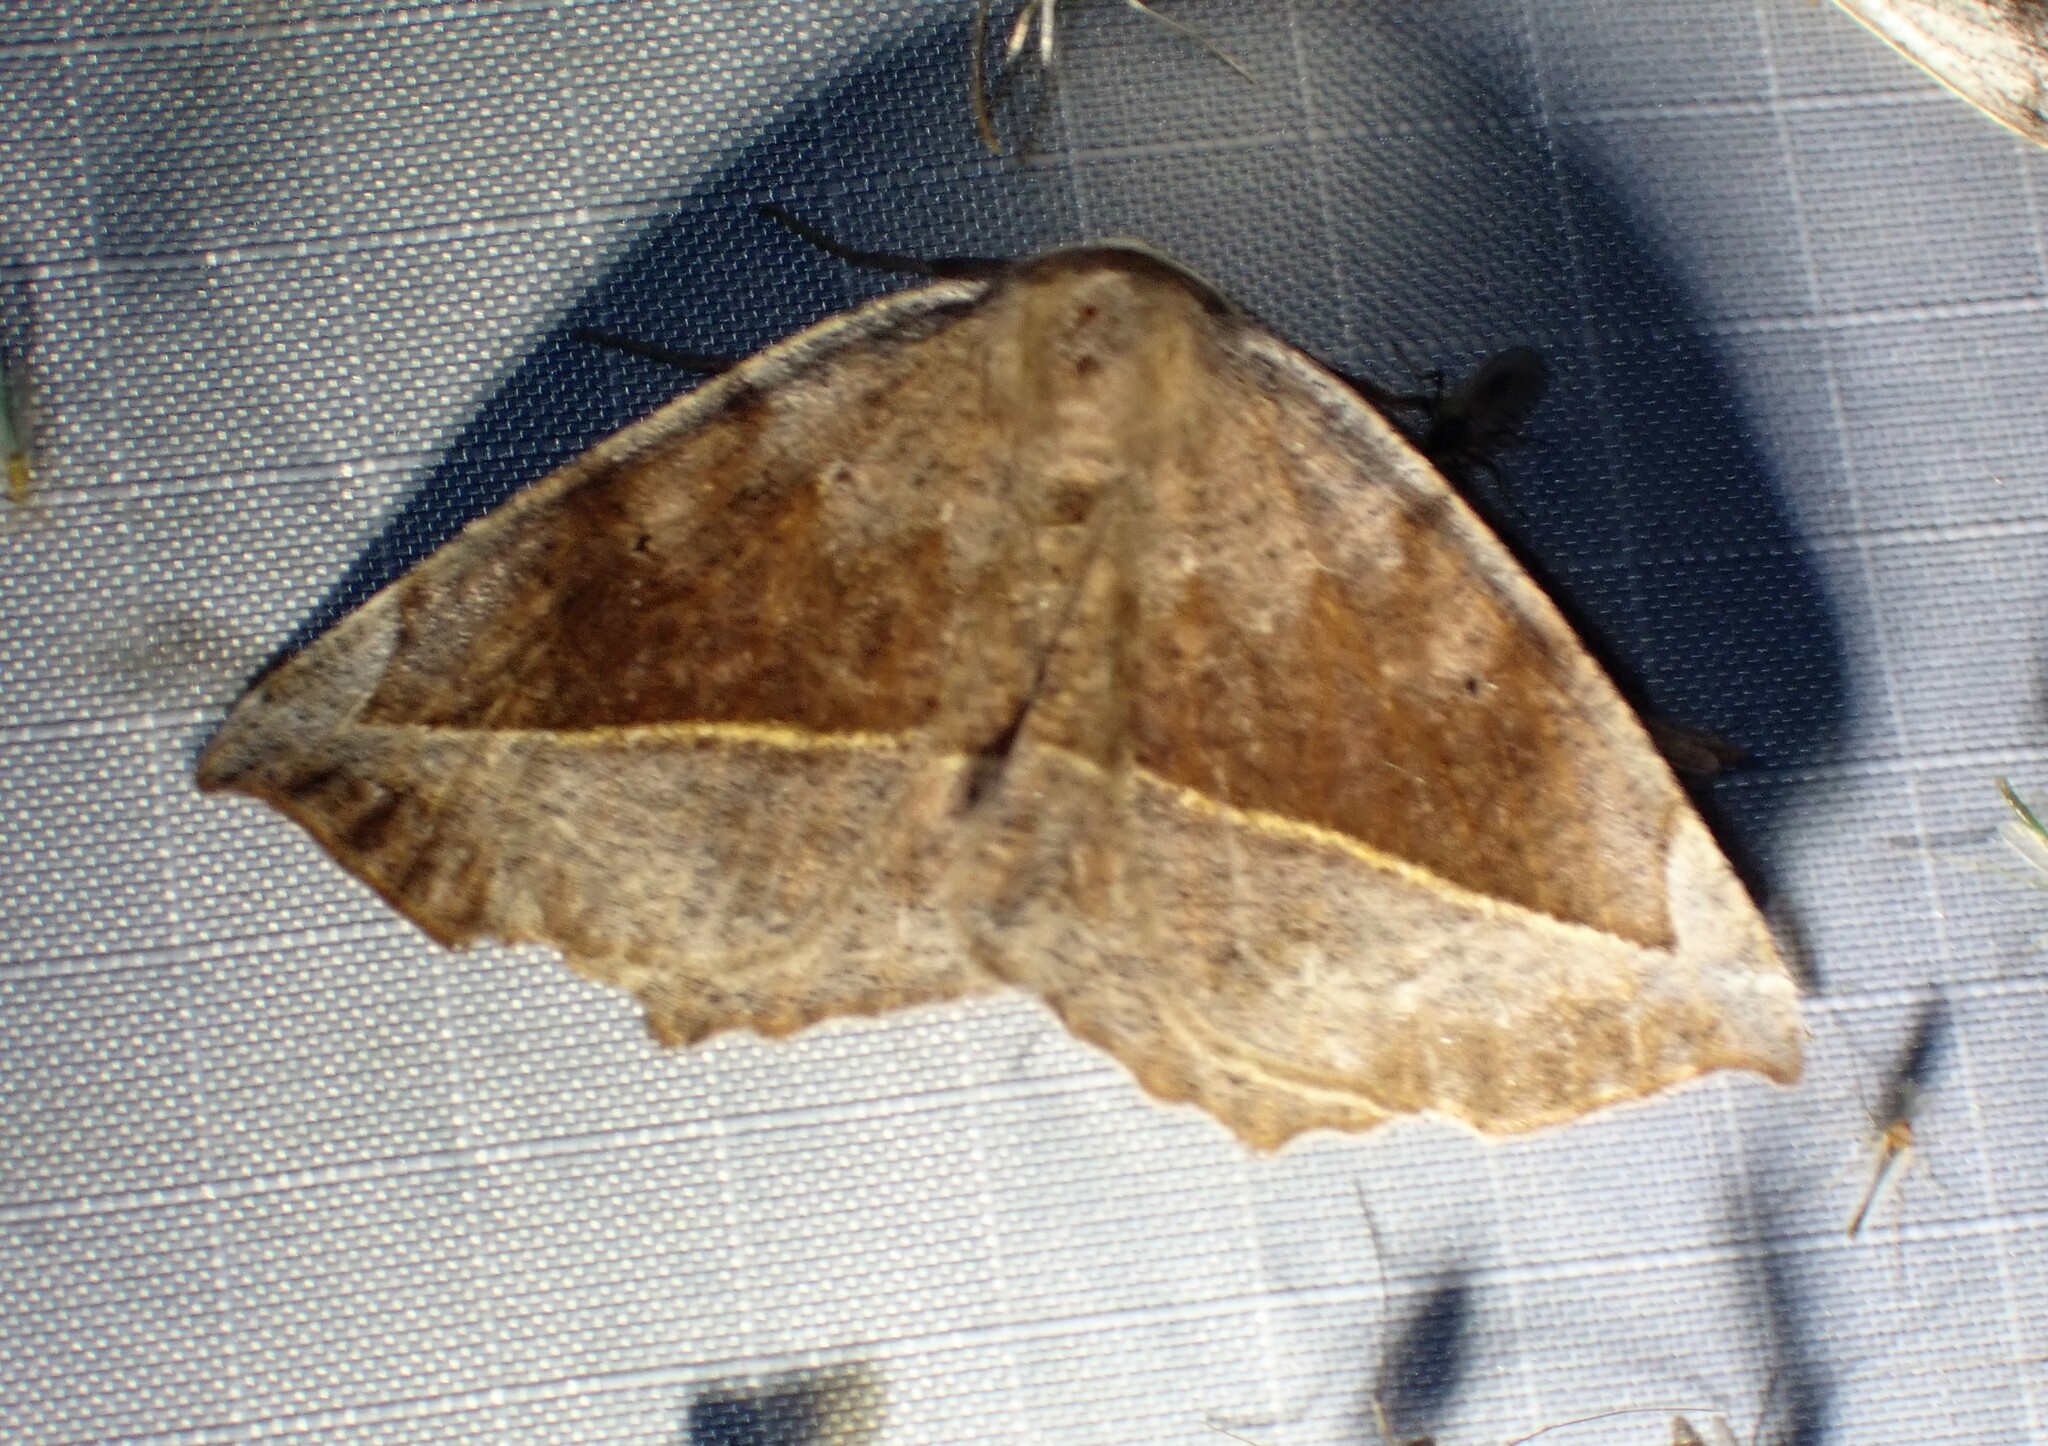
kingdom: Animalia
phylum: Arthropoda
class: Insecta
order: Lepidoptera
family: Geometridae
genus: Eutrapela
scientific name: Eutrapela clemataria
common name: Curved-toothed geometer
